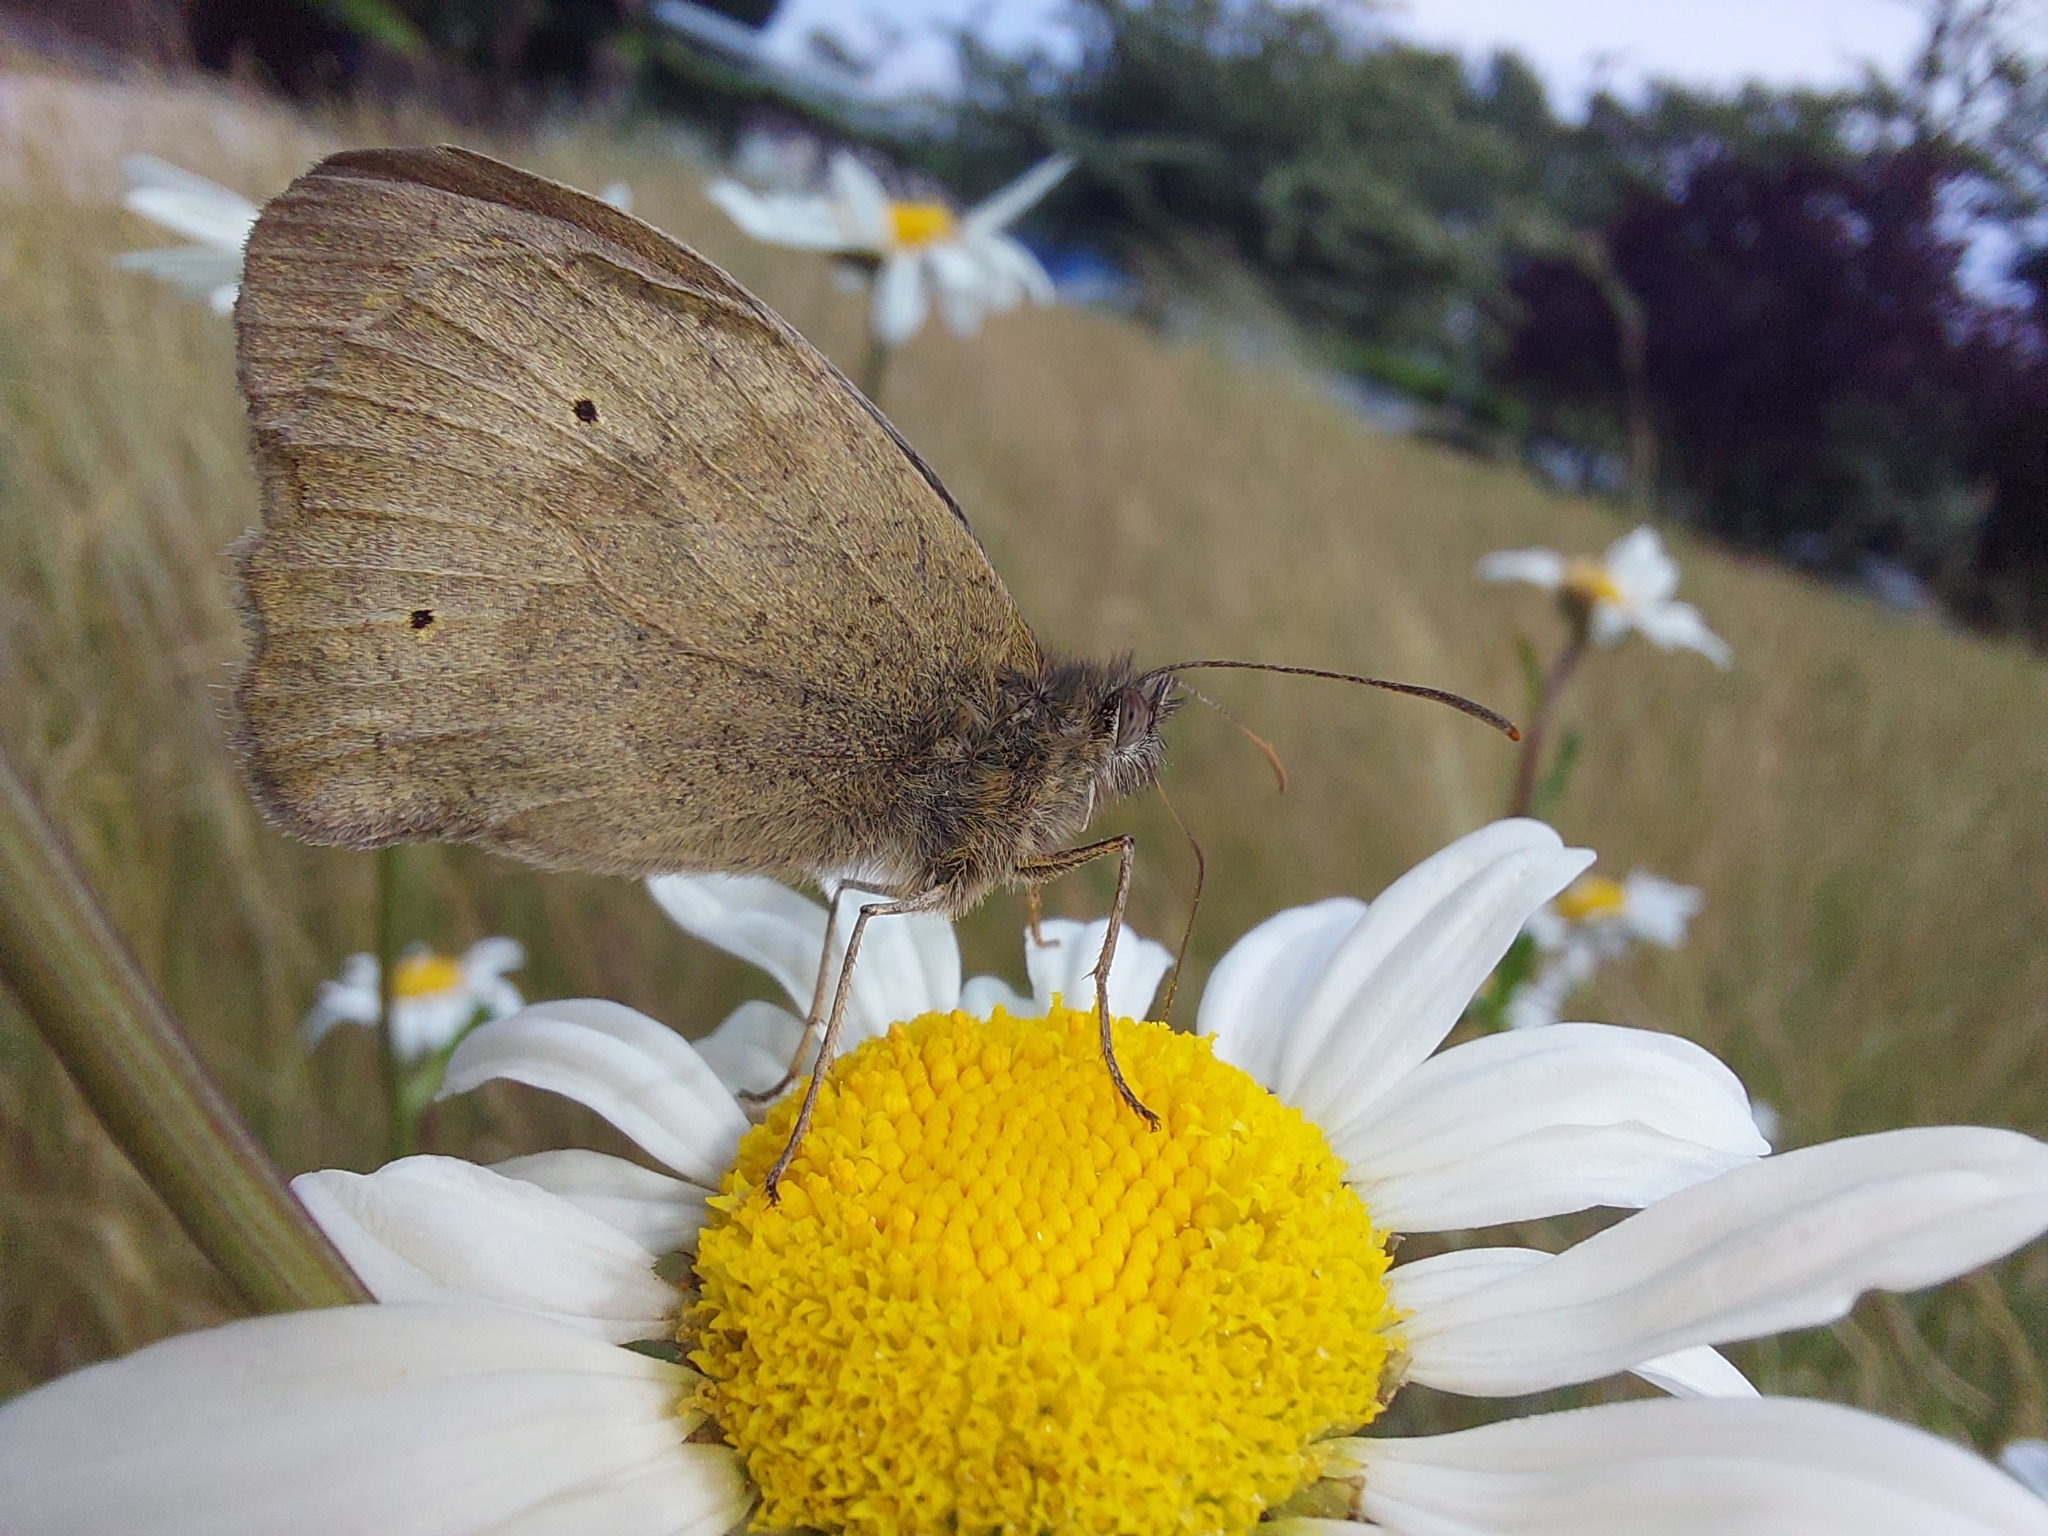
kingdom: Animalia
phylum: Arthropoda
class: Insecta
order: Lepidoptera
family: Nymphalidae
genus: Maniola
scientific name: Maniola jurtina
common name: Meadow brown
